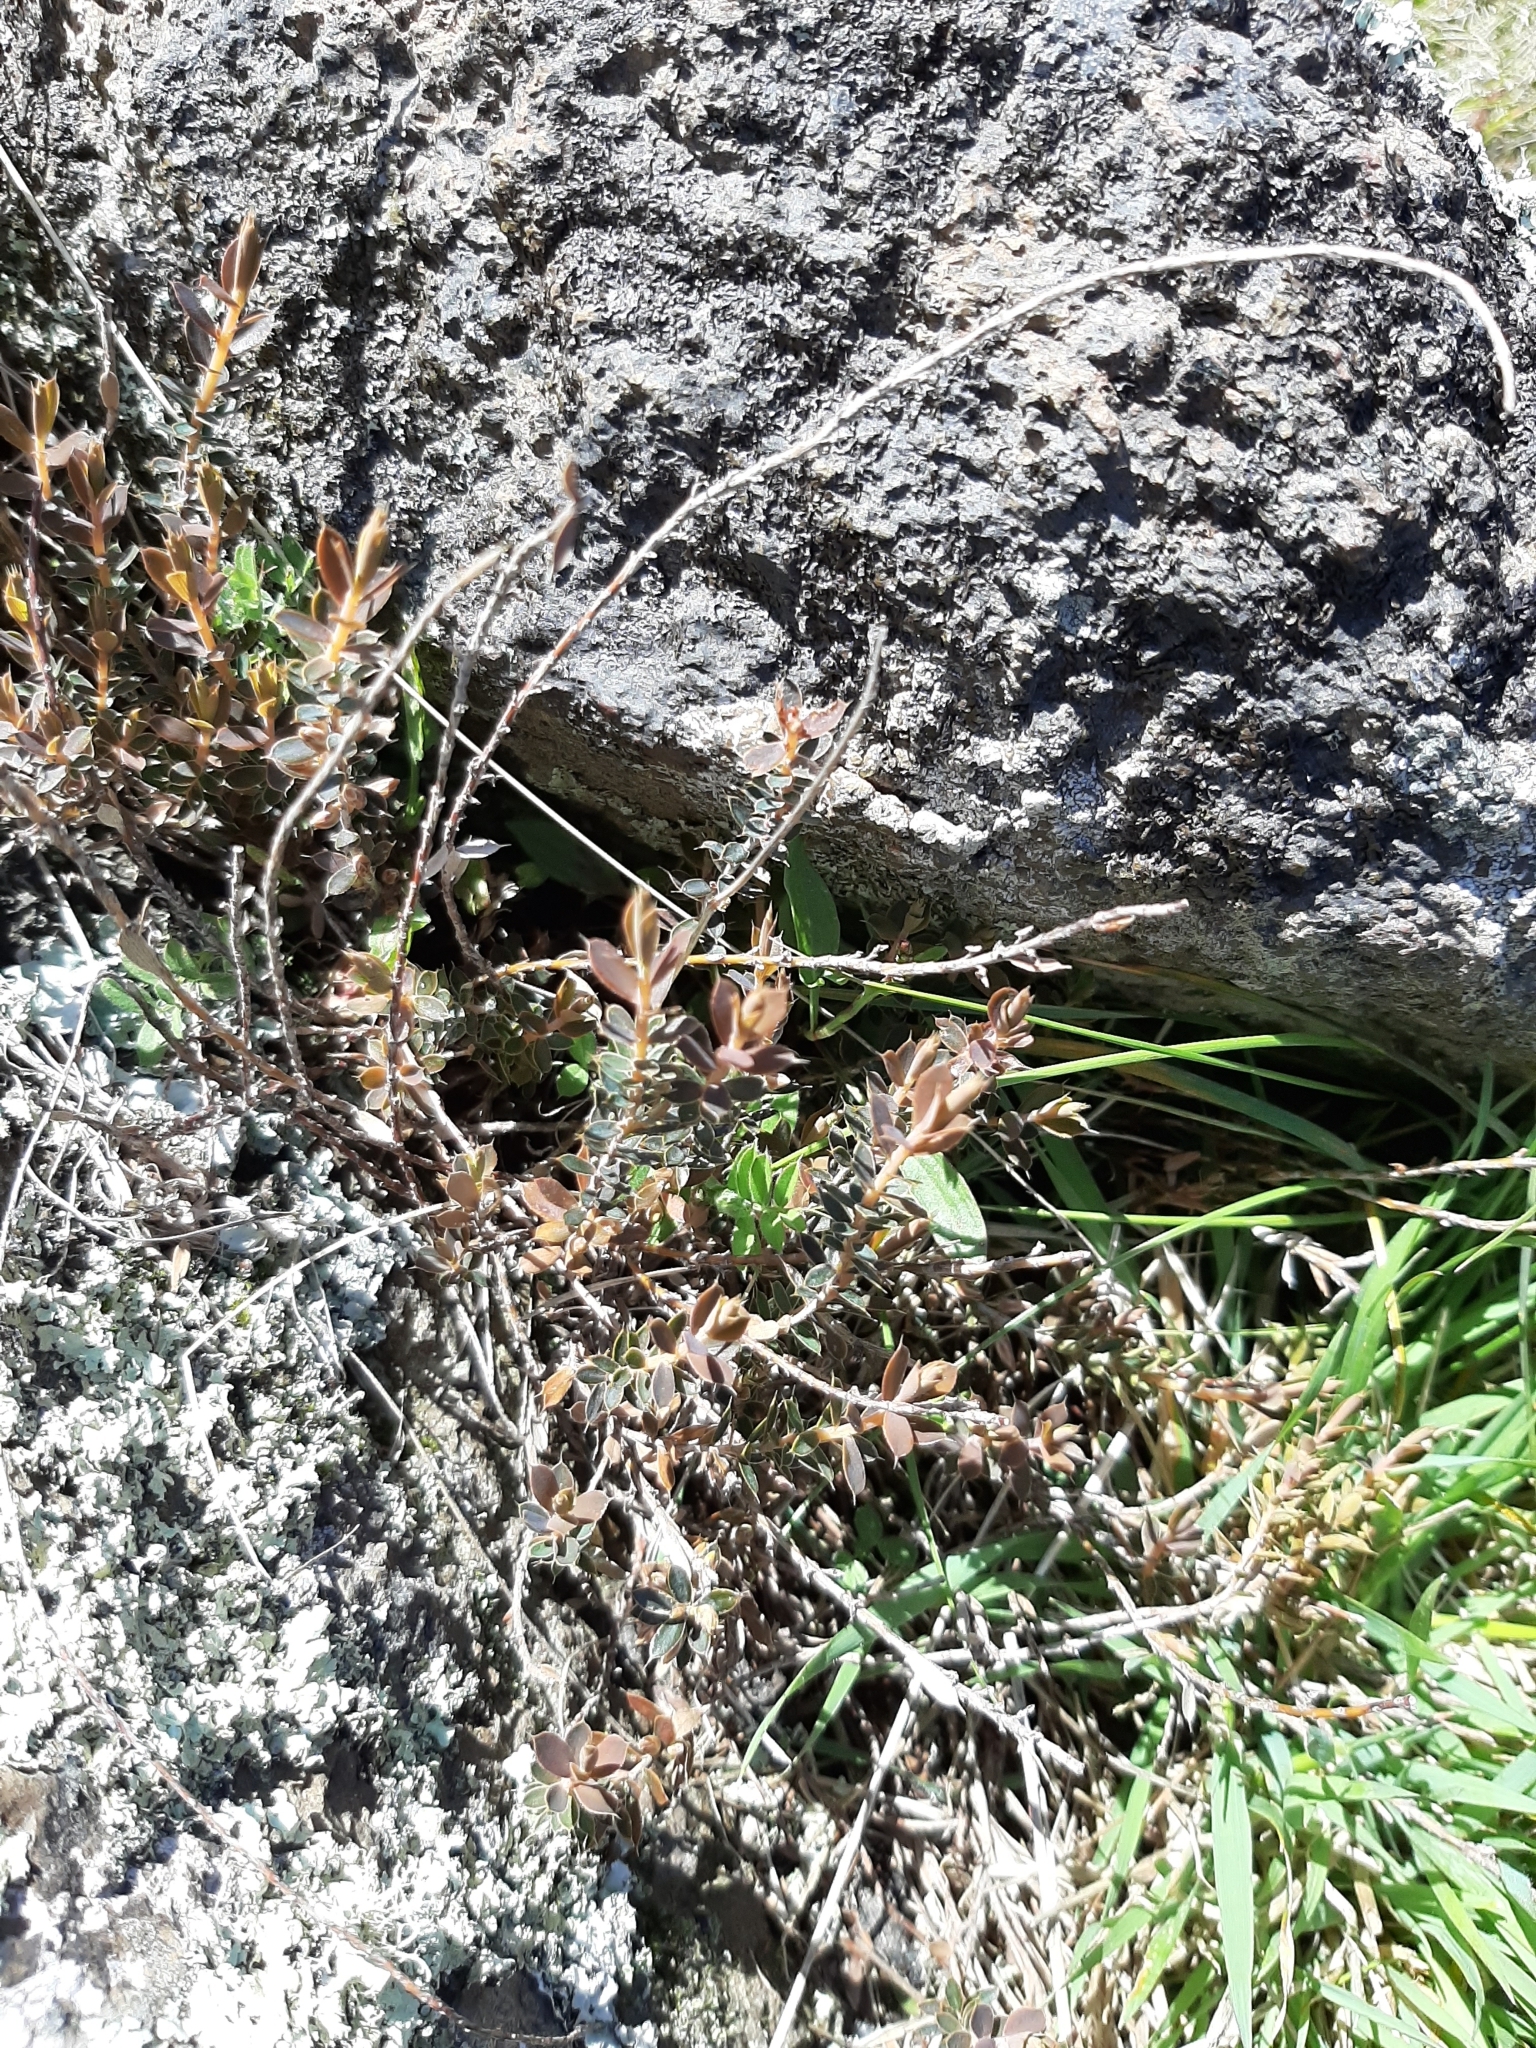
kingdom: Plantae
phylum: Tracheophyta
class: Magnoliopsida
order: Ericales
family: Ericaceae
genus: Styphelia
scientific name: Styphelia nesophila
